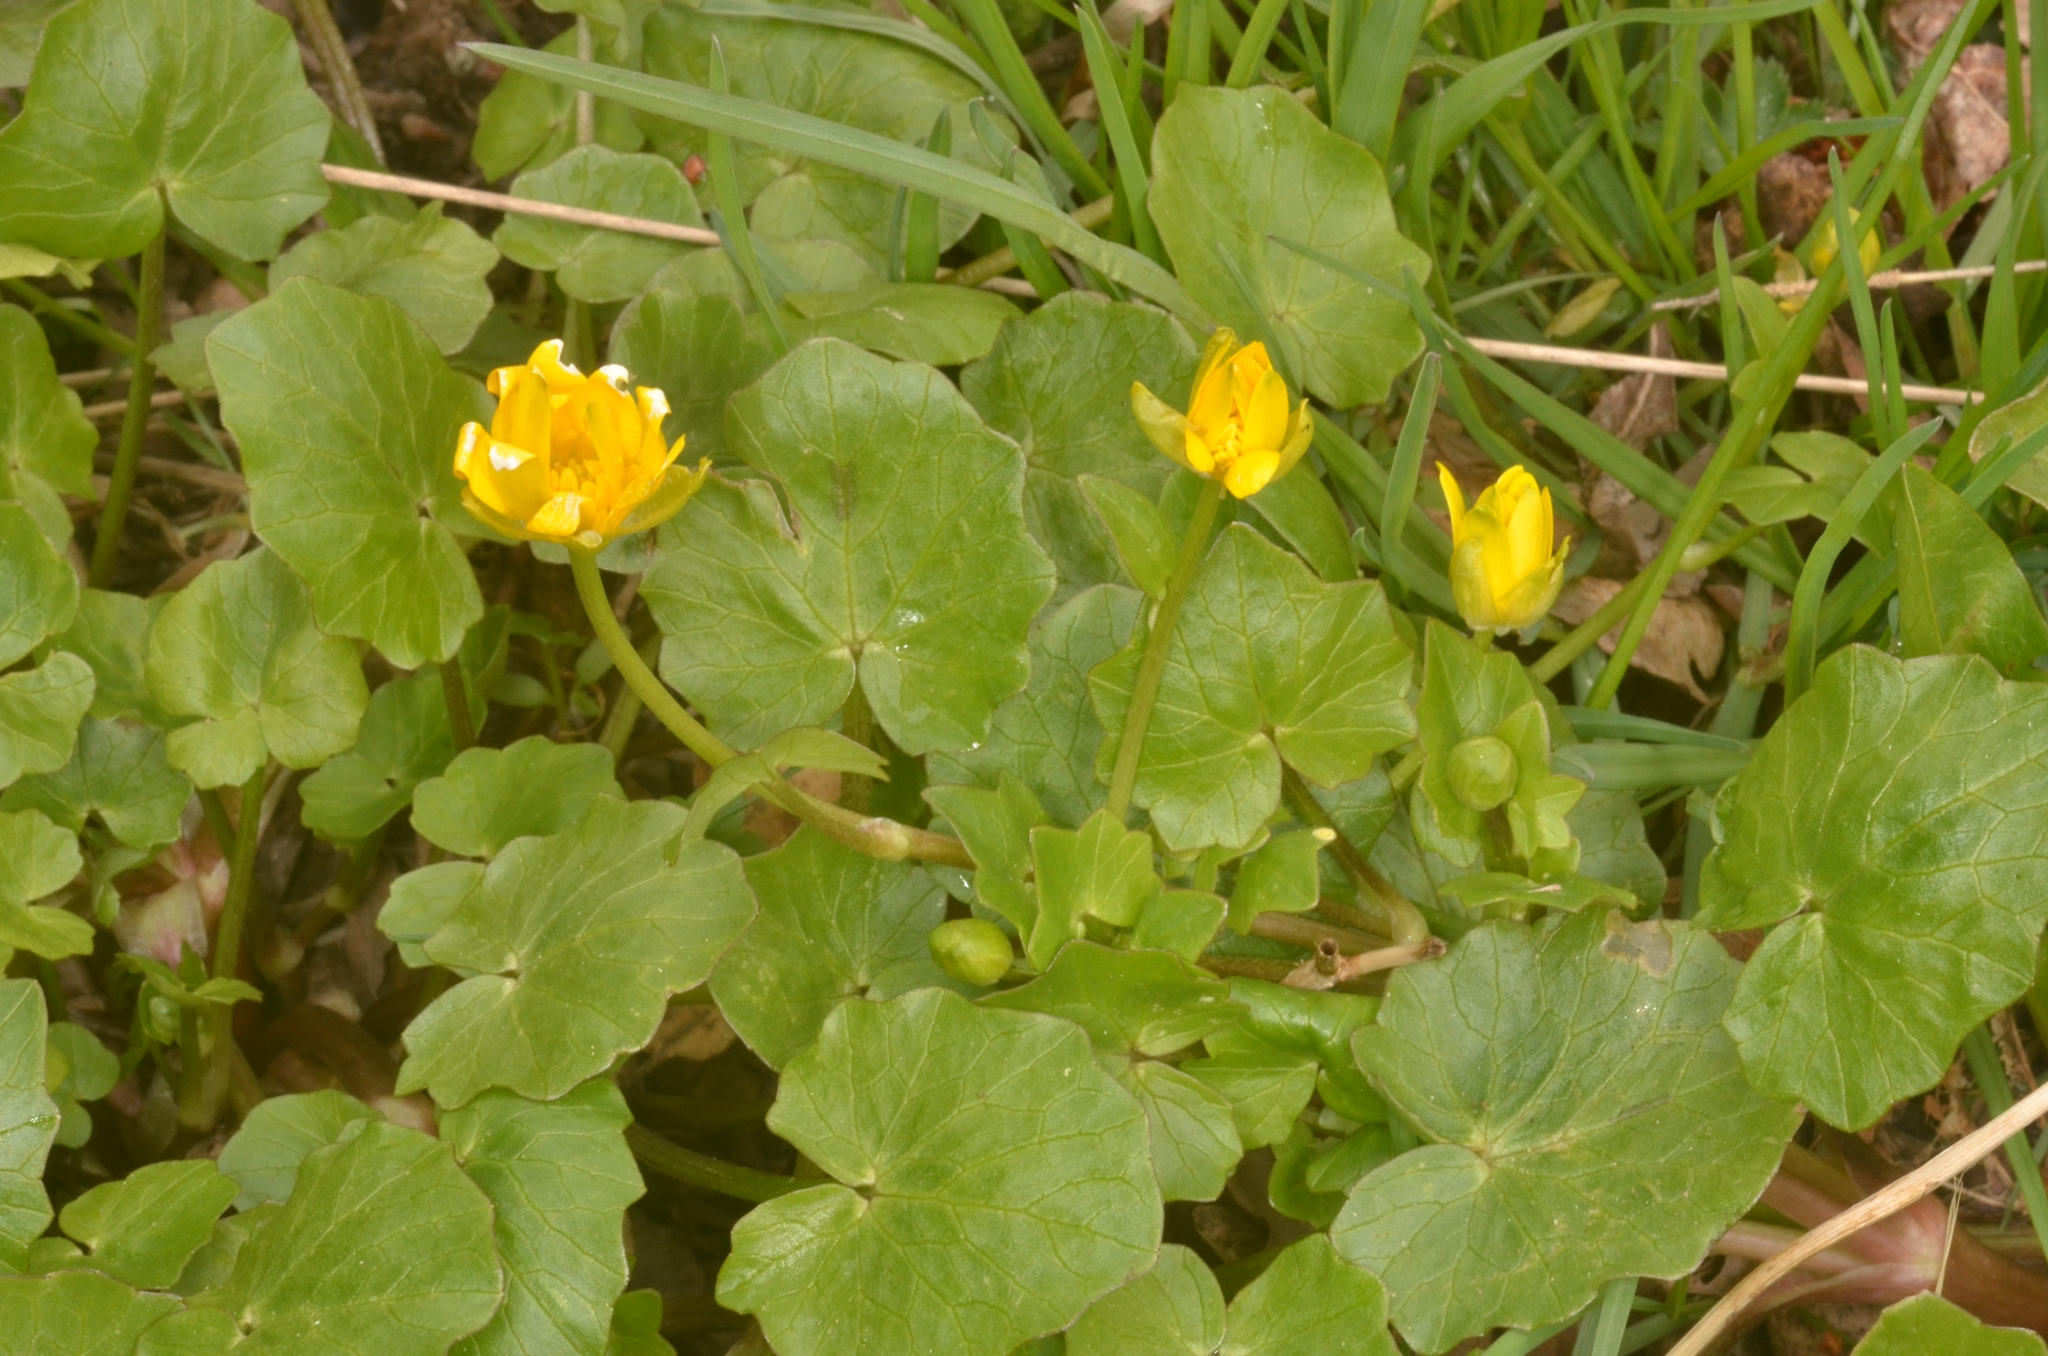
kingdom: Plantae
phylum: Tracheophyta
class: Magnoliopsida
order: Ranunculales
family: Ranunculaceae
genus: Ficaria
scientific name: Ficaria verna
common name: Lesser celandine
